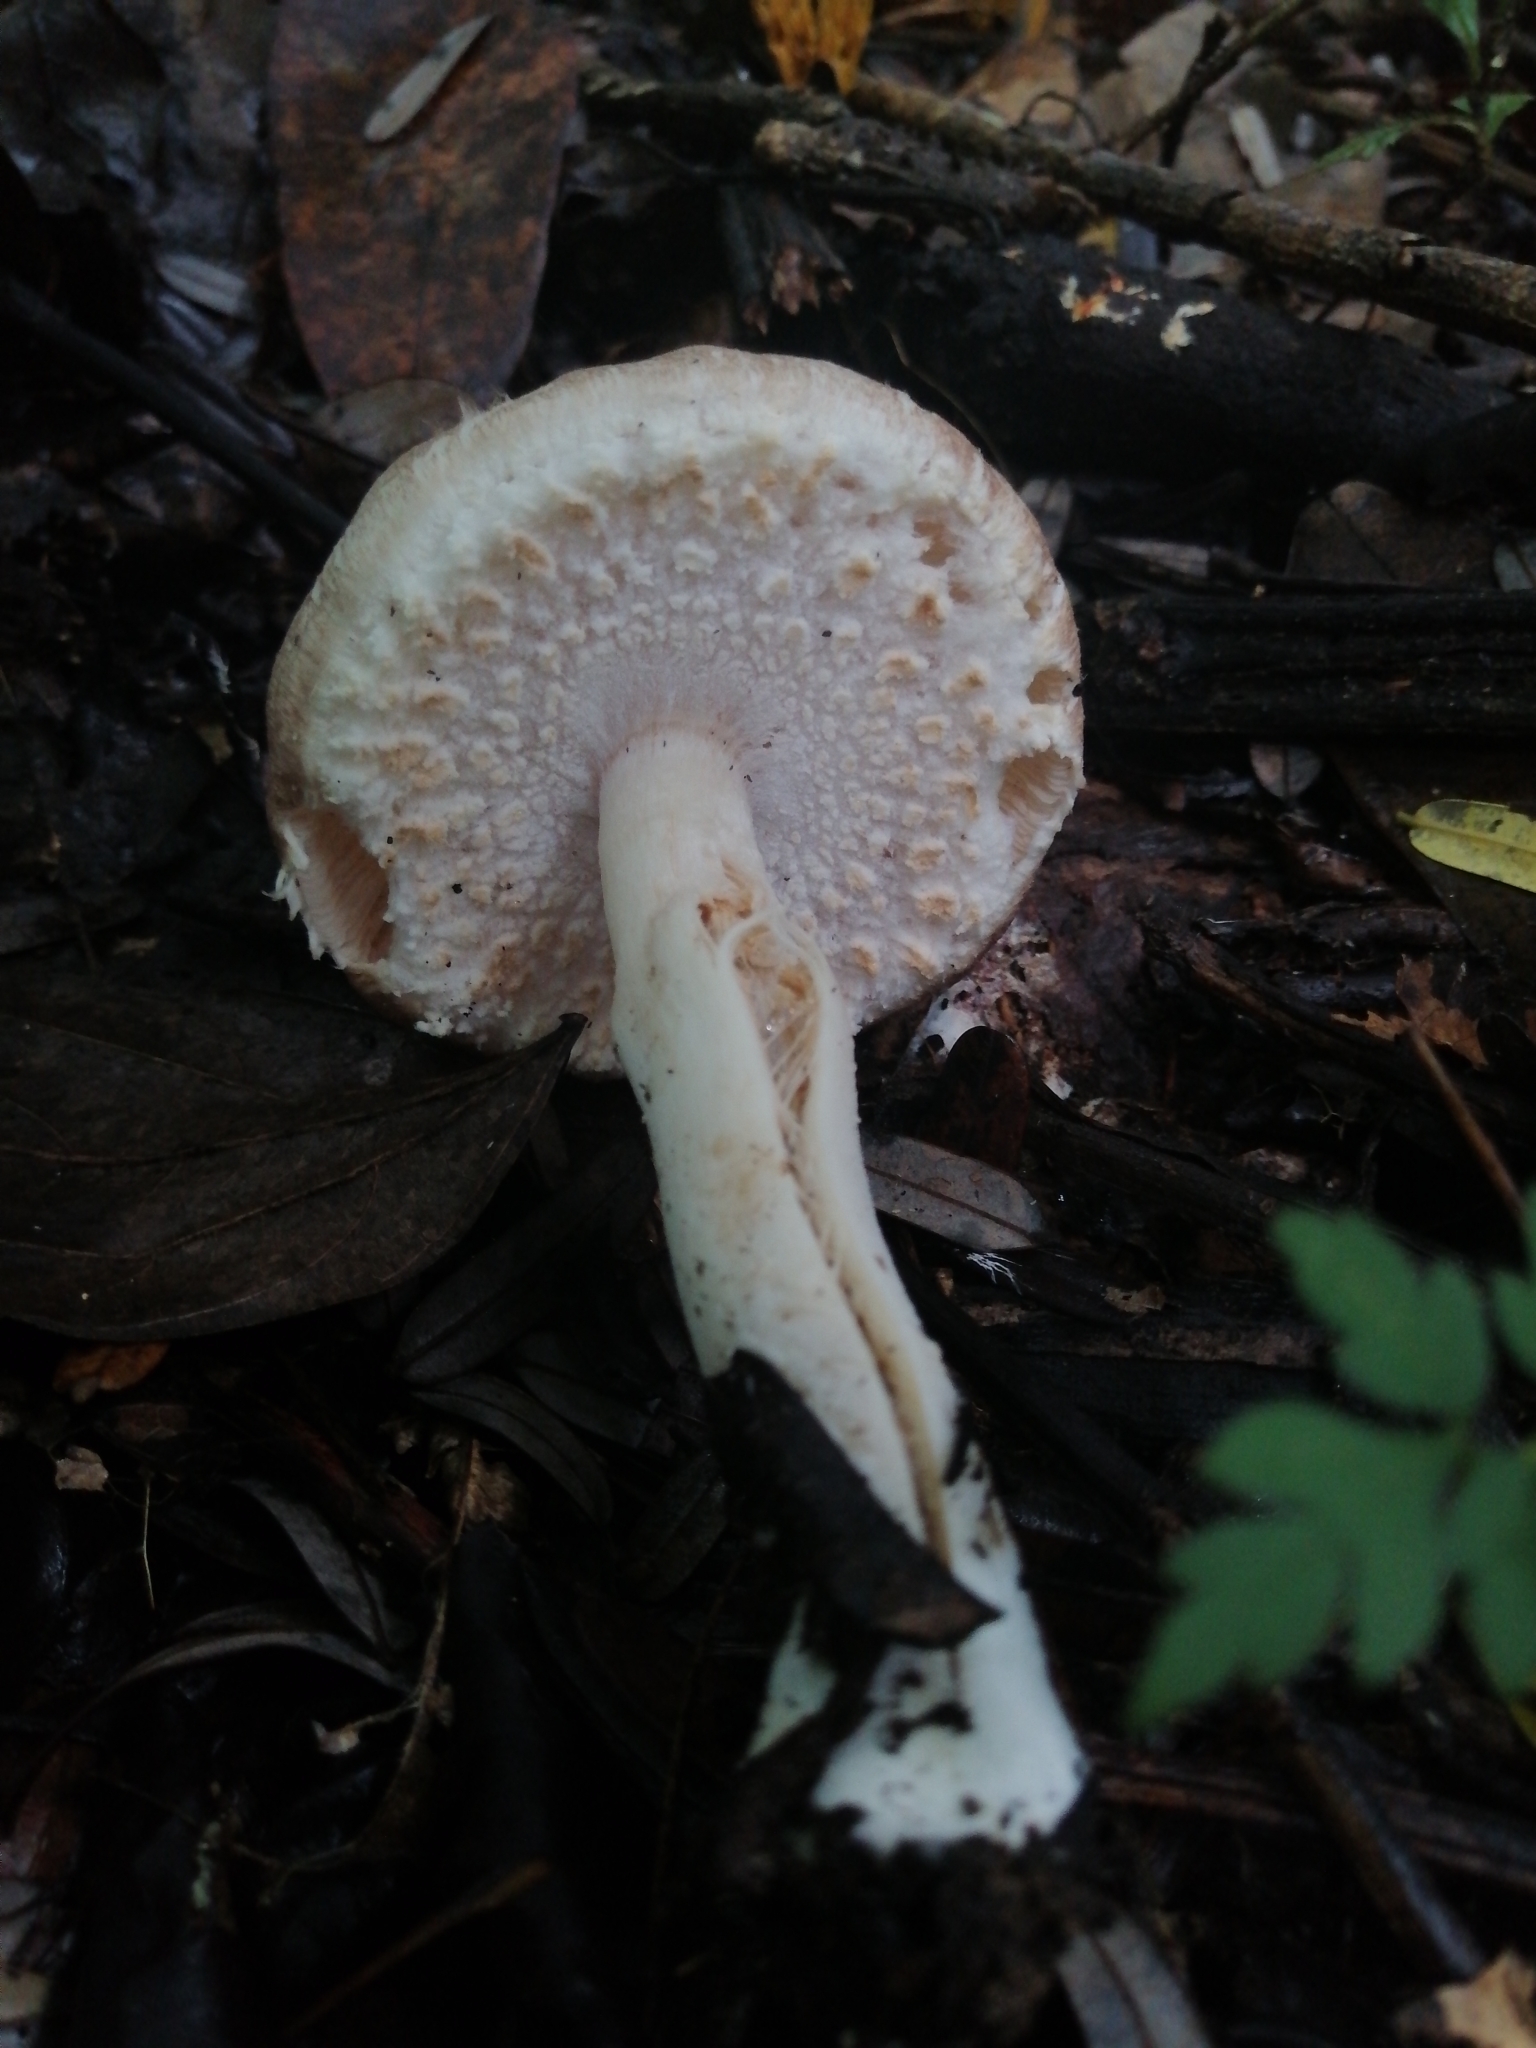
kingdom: Fungi
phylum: Basidiomycota
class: Agaricomycetes
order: Agaricales
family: Agaricaceae
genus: Agaricus
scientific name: Agaricus subrutilescens
